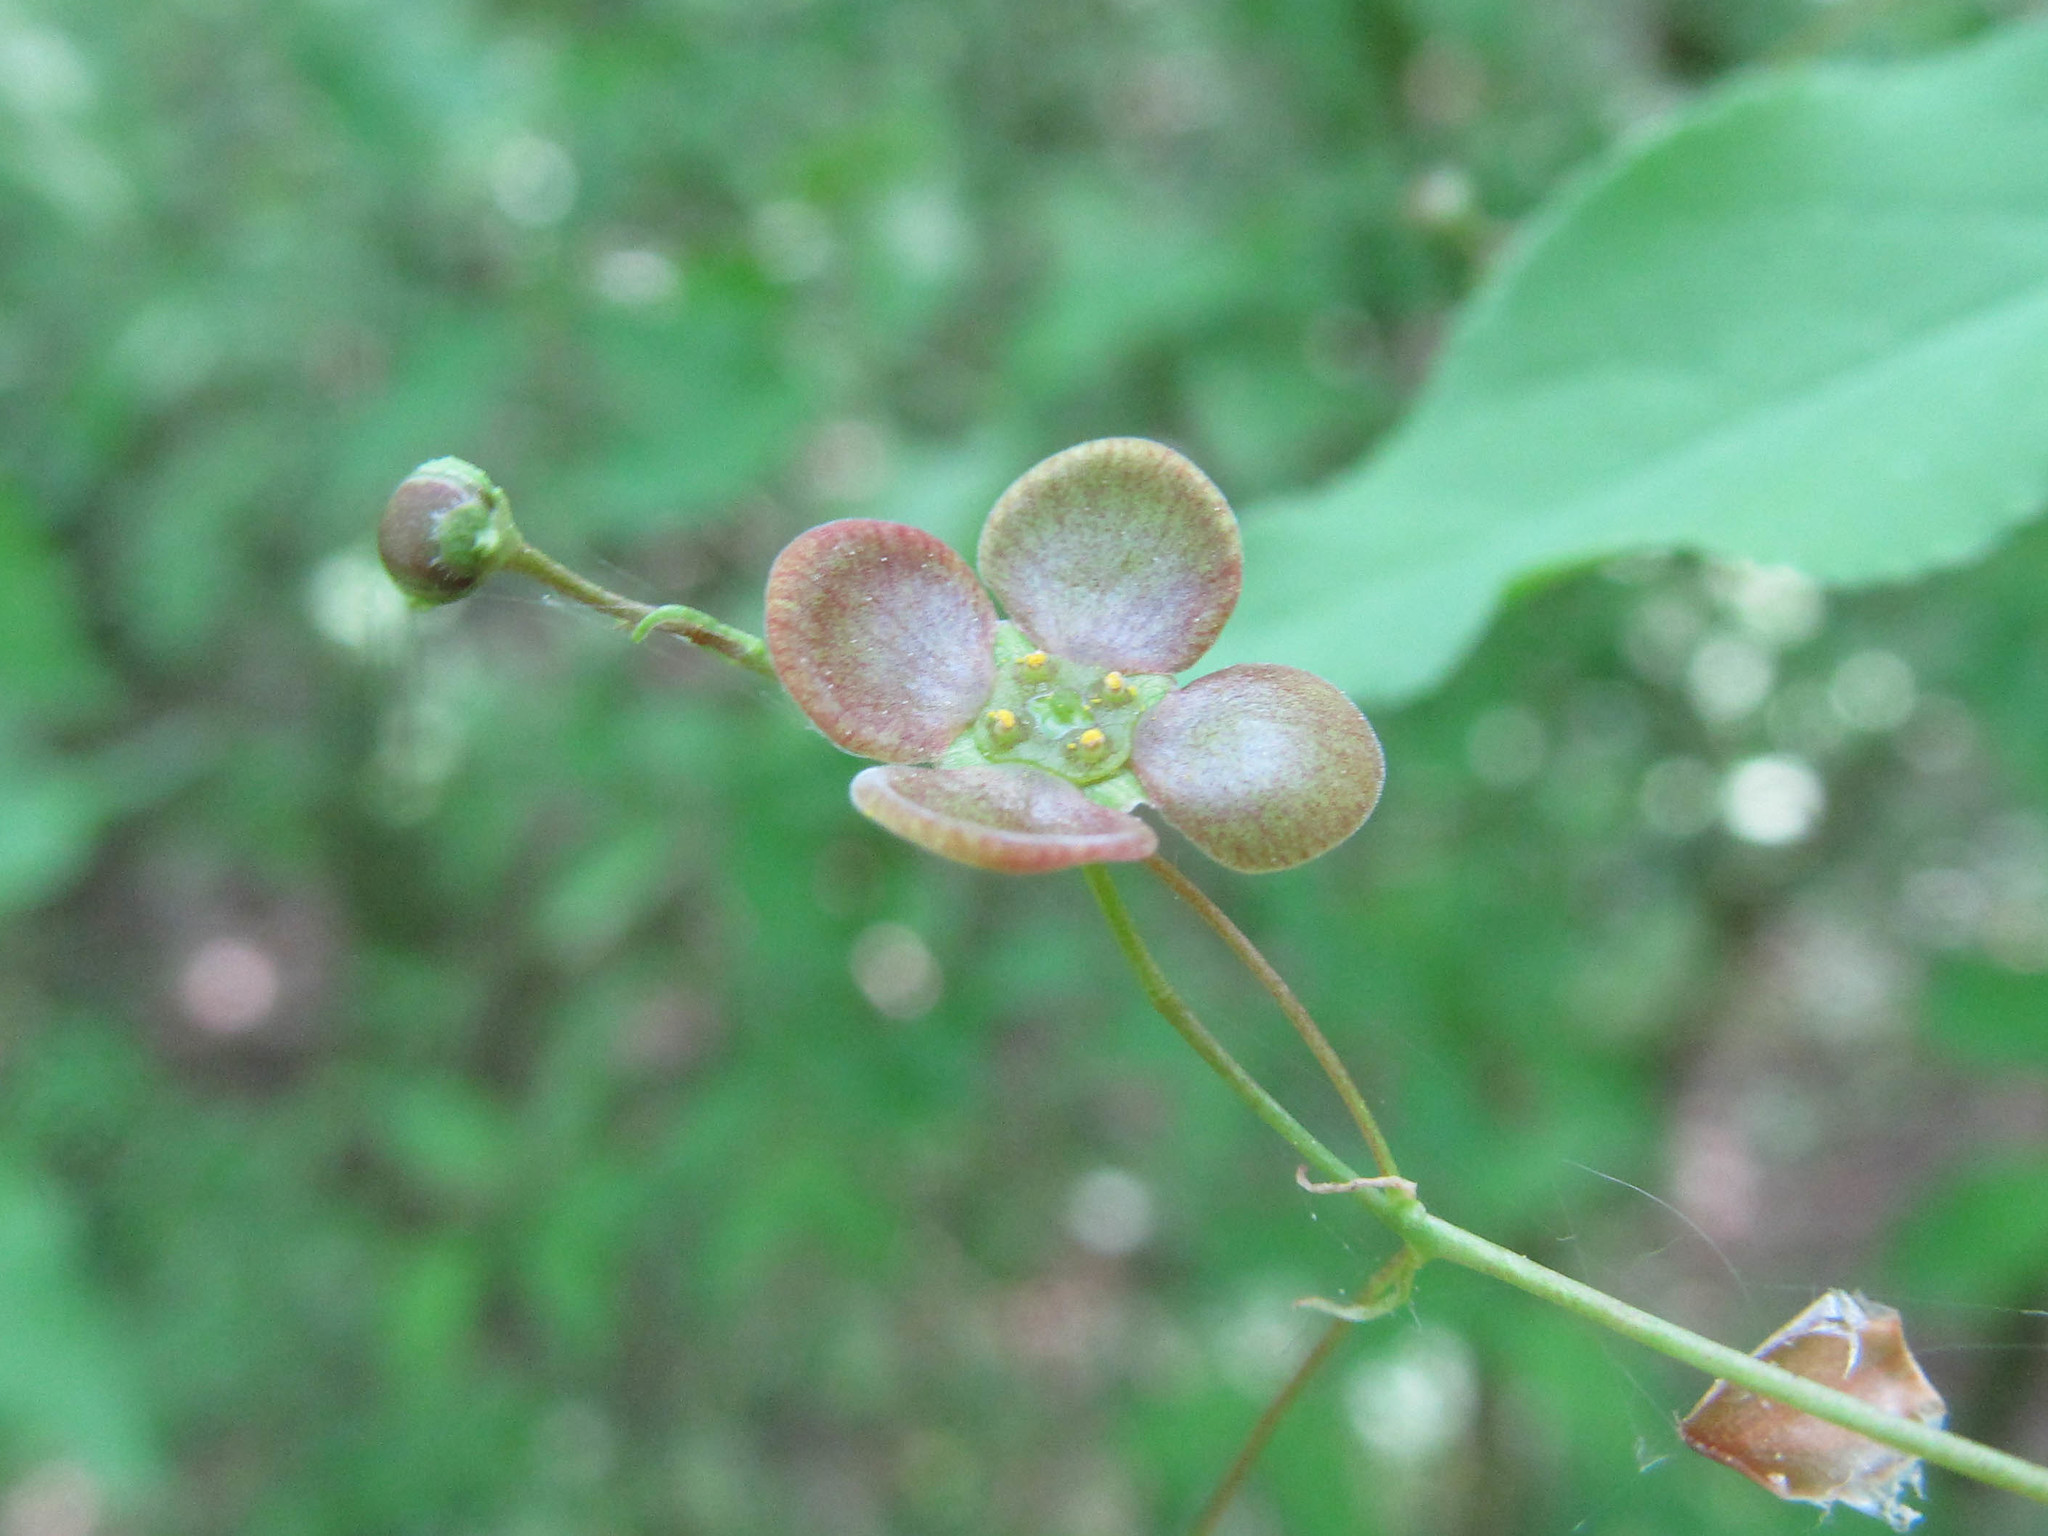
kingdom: Plantae
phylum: Tracheophyta
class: Magnoliopsida
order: Celastrales
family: Celastraceae
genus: Euonymus
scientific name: Euonymus verrucosus
